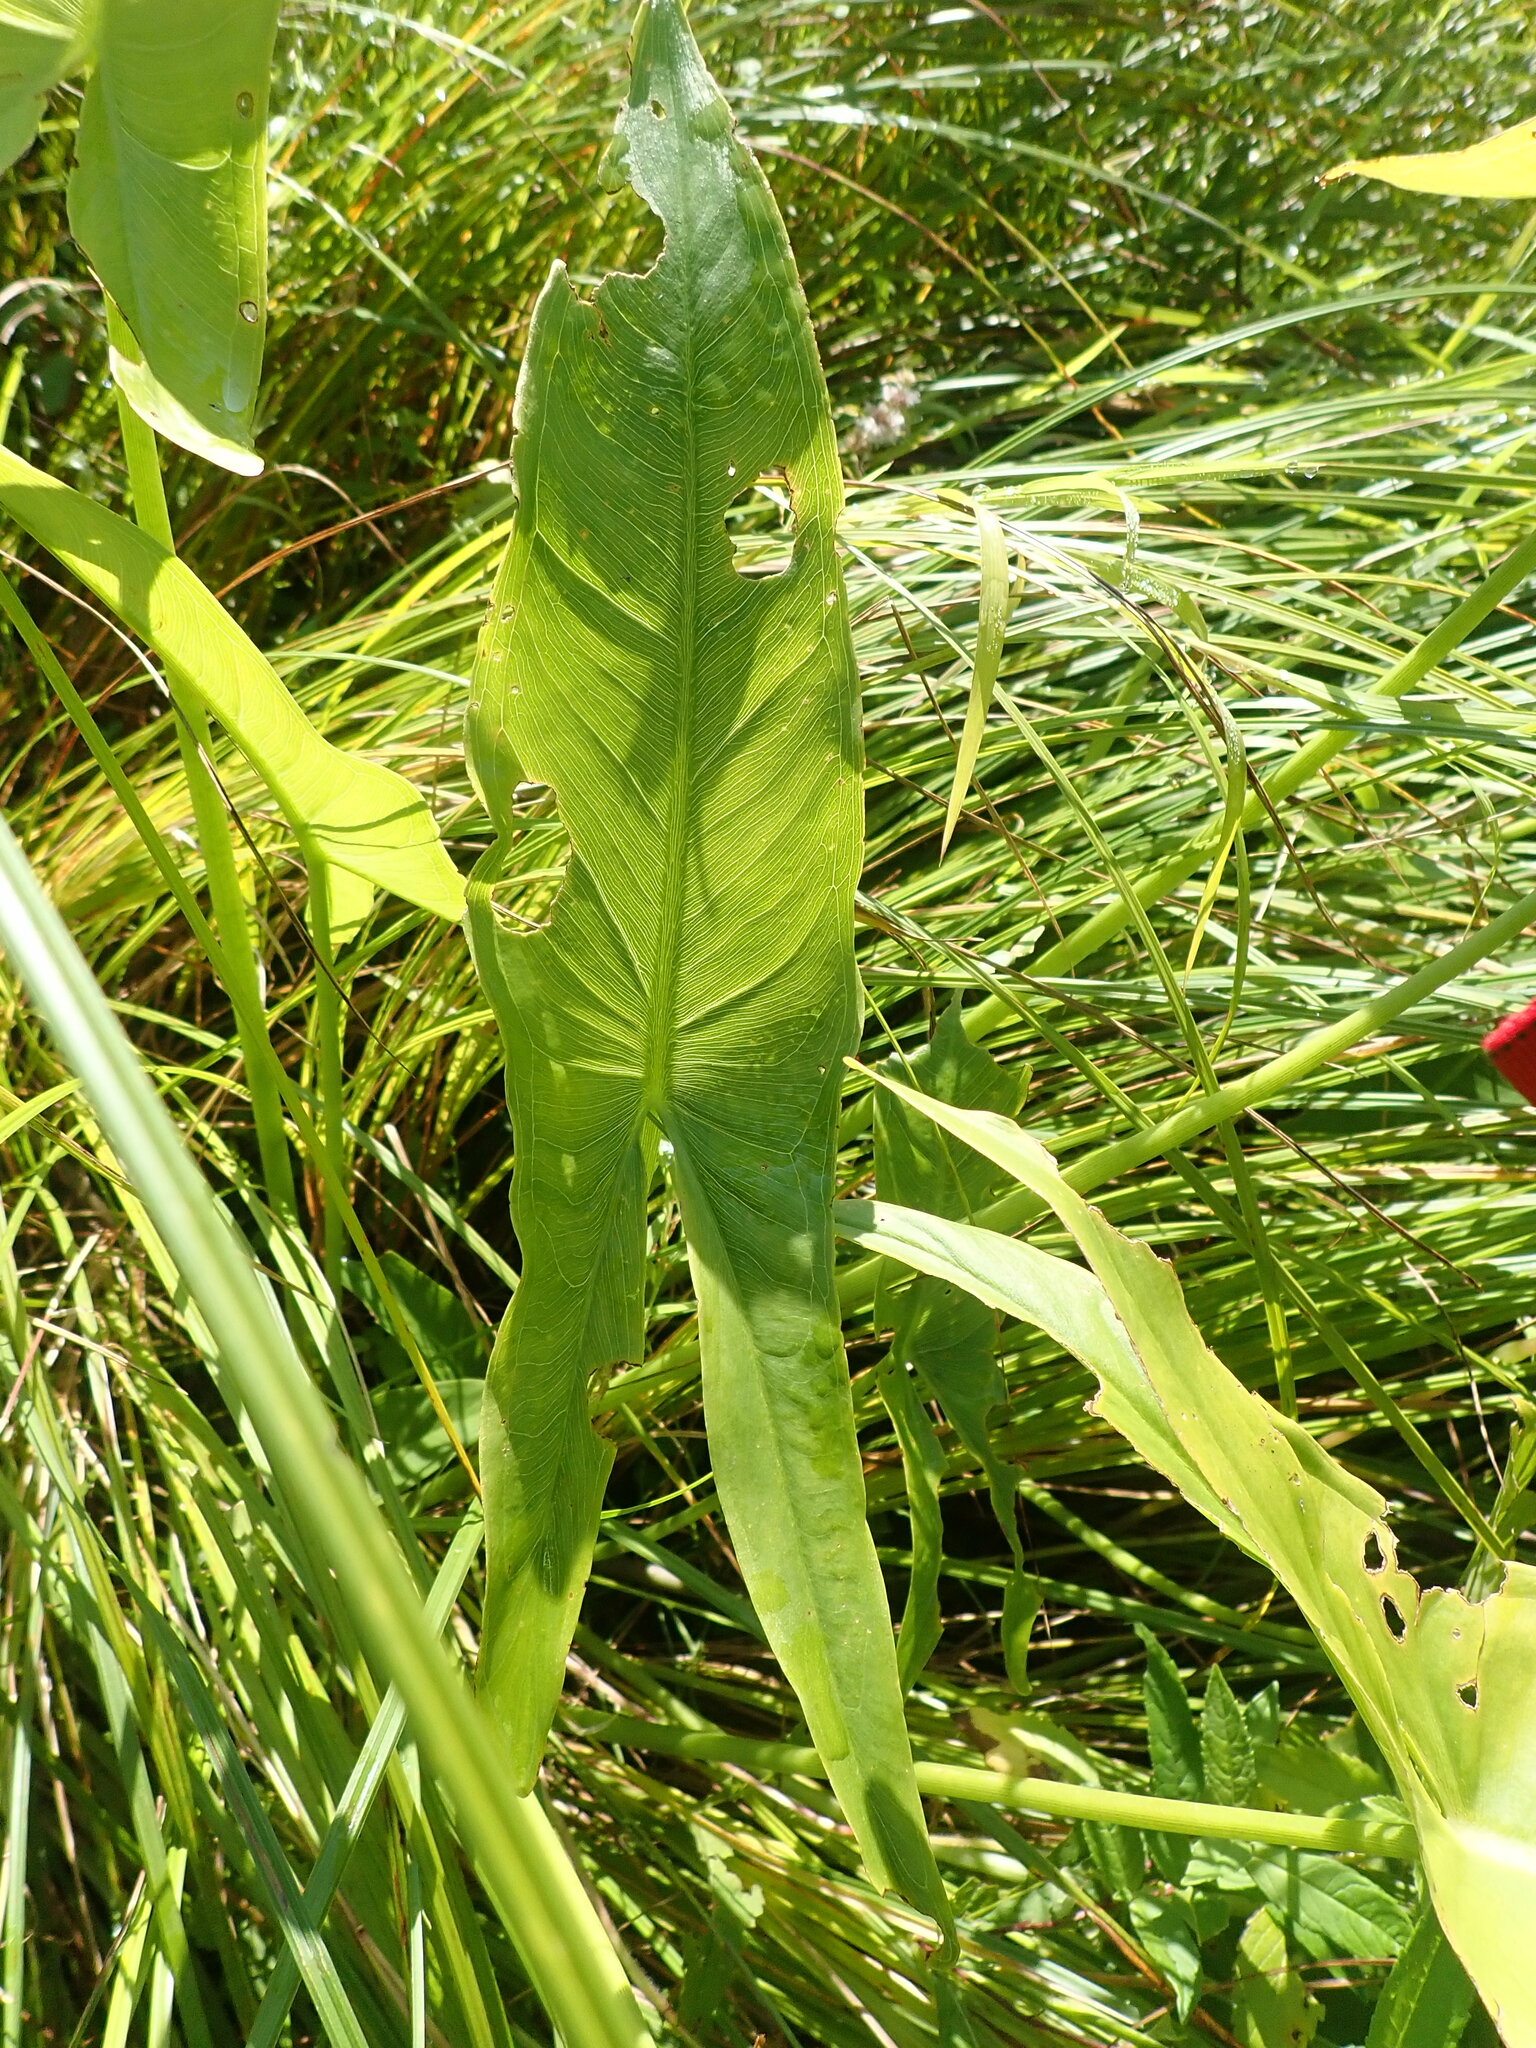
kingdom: Plantae
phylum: Tracheophyta
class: Liliopsida
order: Alismatales
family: Araceae
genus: Peltandra
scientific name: Peltandra virginica
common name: Arrow arum
